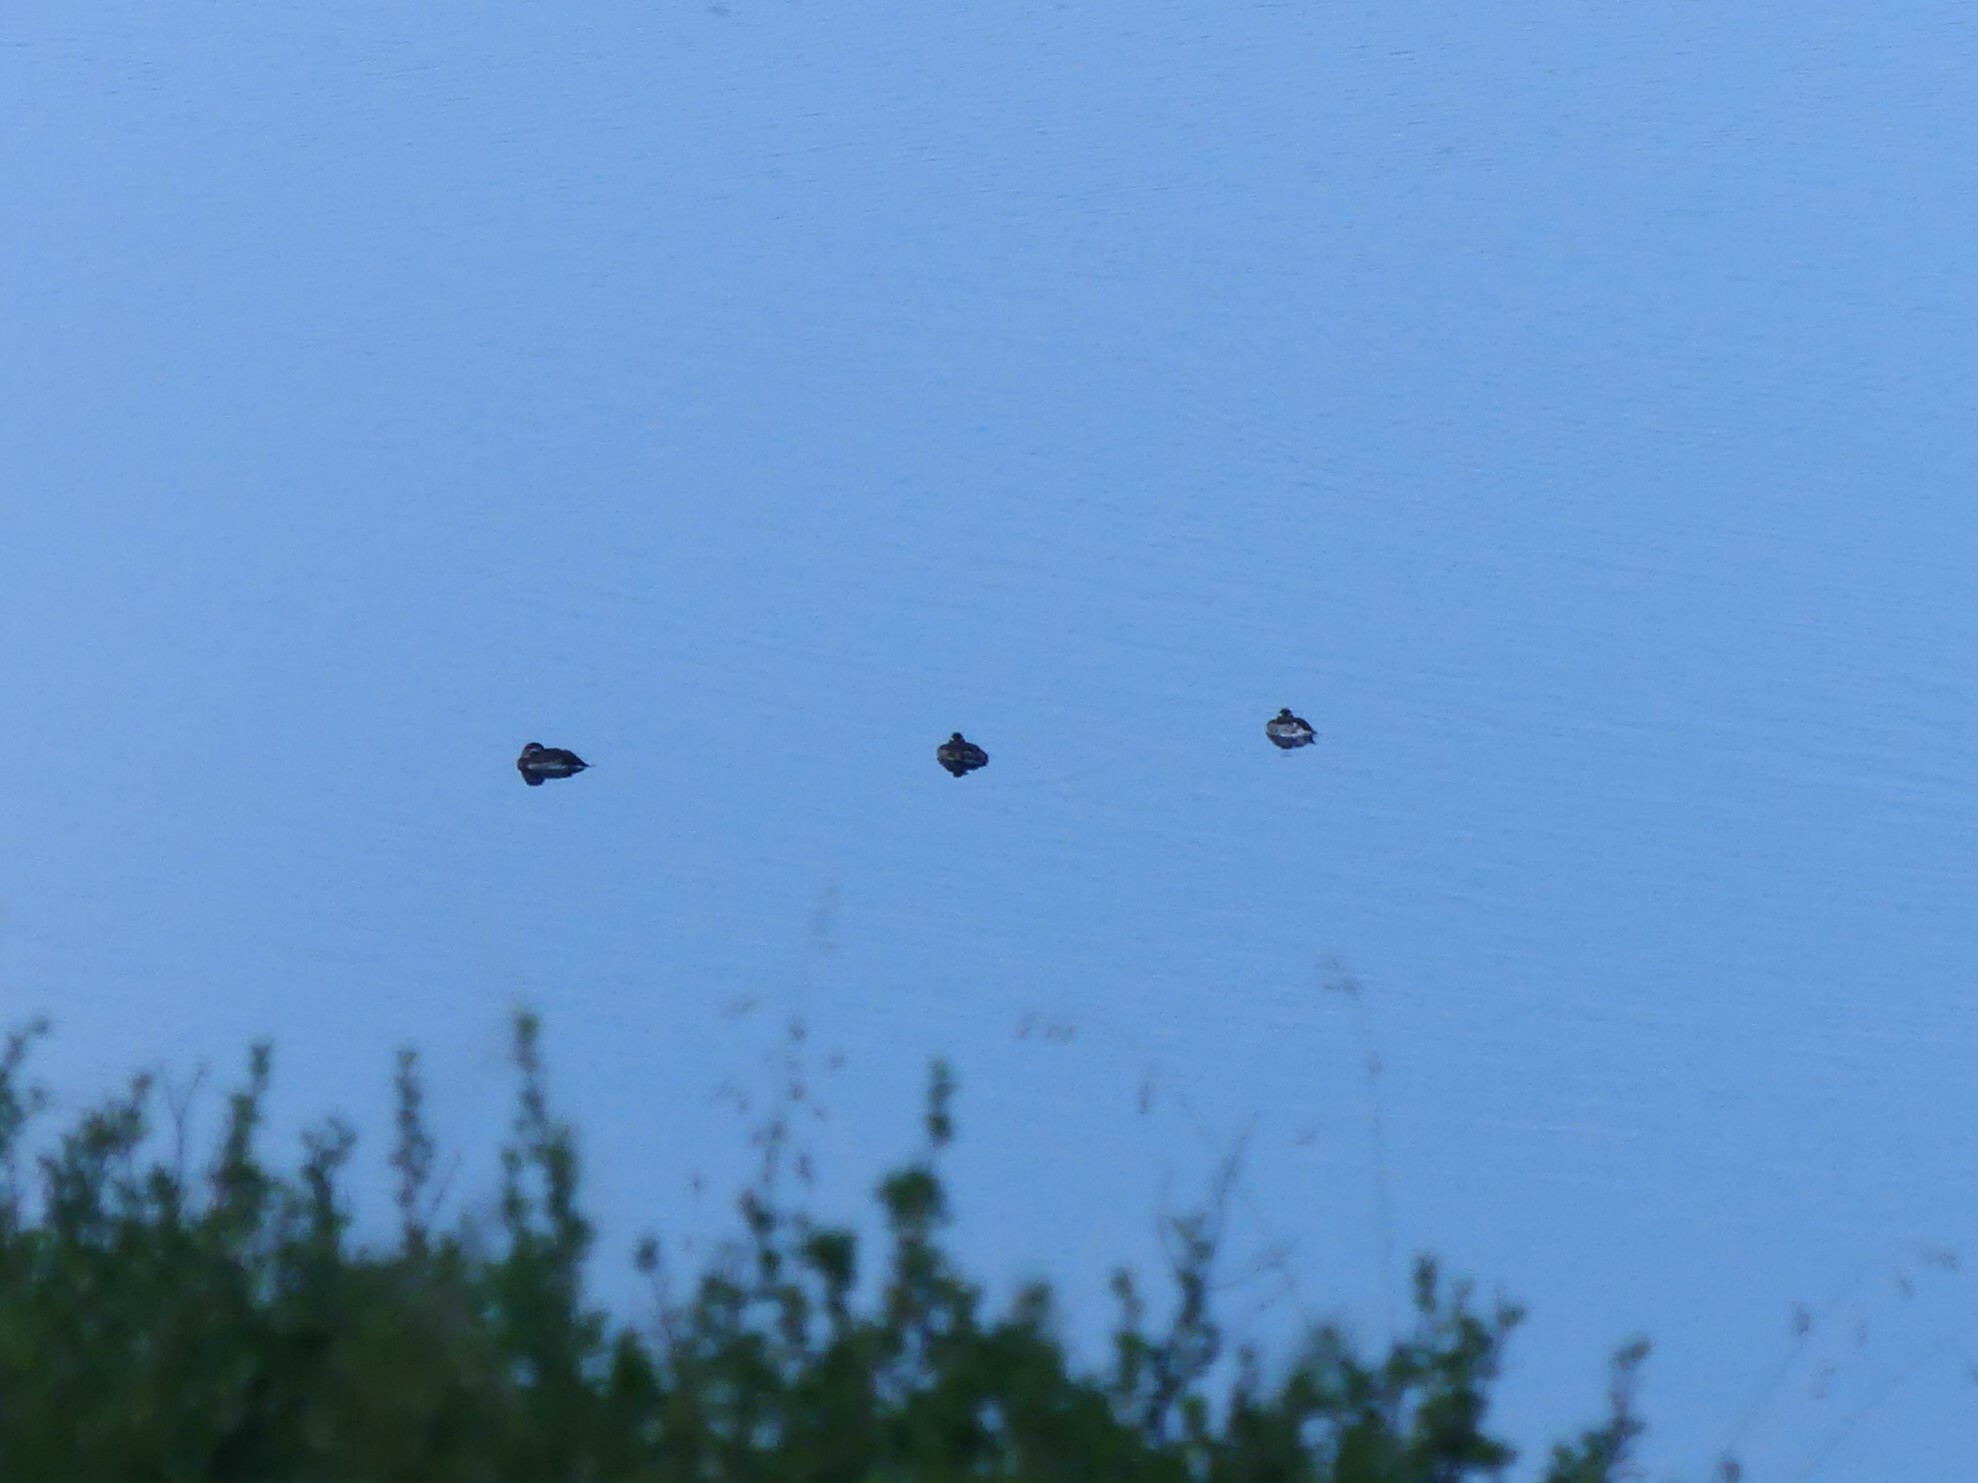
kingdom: Animalia
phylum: Chordata
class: Aves
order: Anseriformes
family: Anatidae
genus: Clangula
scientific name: Clangula hyemalis
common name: Long-tailed duck
